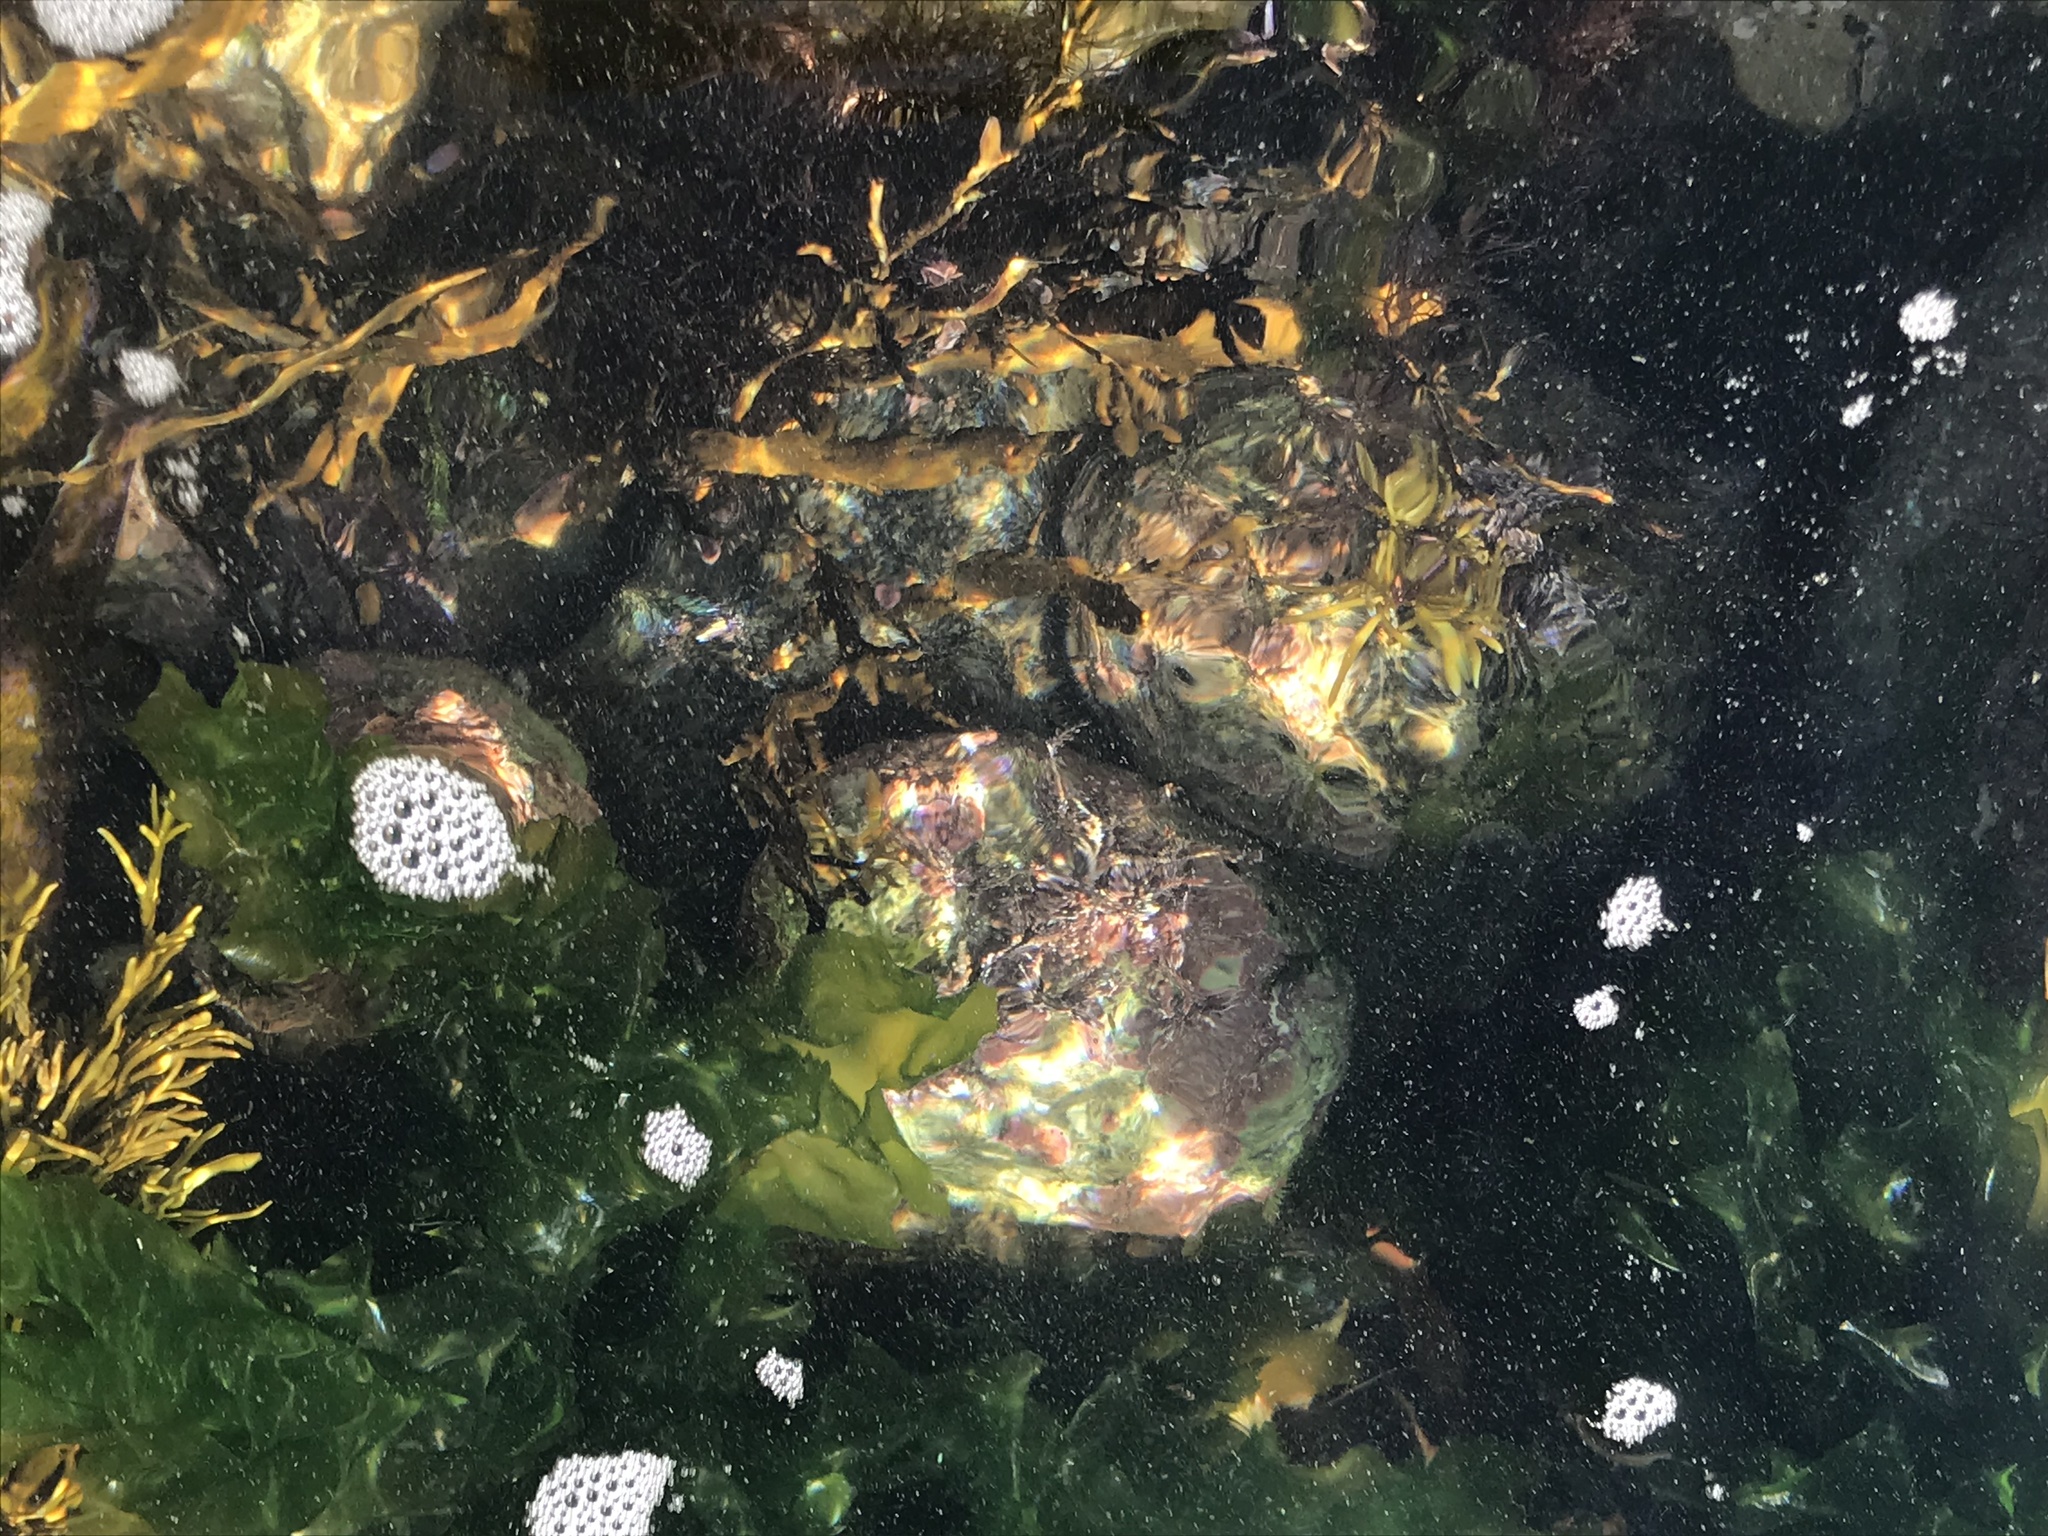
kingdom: Animalia
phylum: Mollusca
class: Gastropoda
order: Lepetellida
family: Haliotidae
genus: Haliotis
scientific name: Haliotis iris
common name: Abalone
